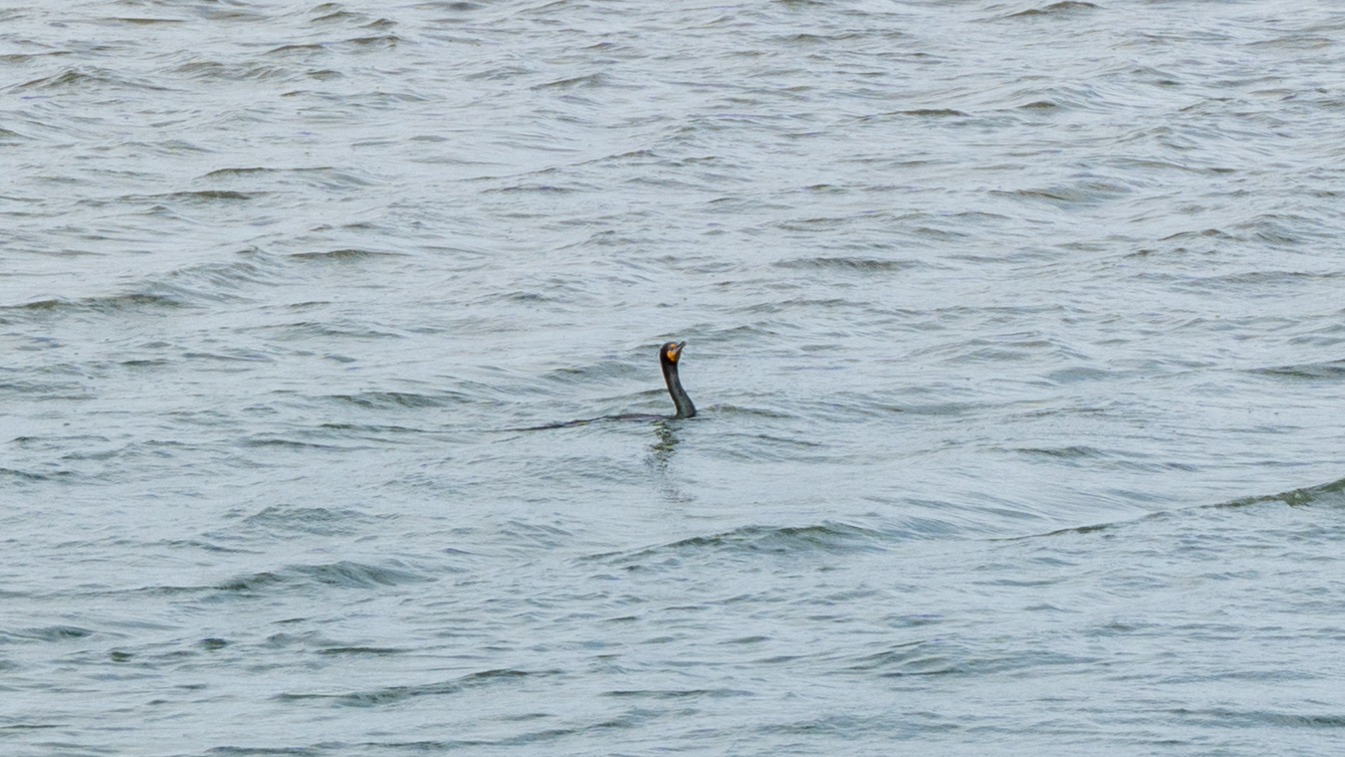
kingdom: Animalia
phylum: Chordata
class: Aves
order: Suliformes
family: Phalacrocoracidae
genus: Phalacrocorax
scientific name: Phalacrocorax auritus
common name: Double-crested cormorant
